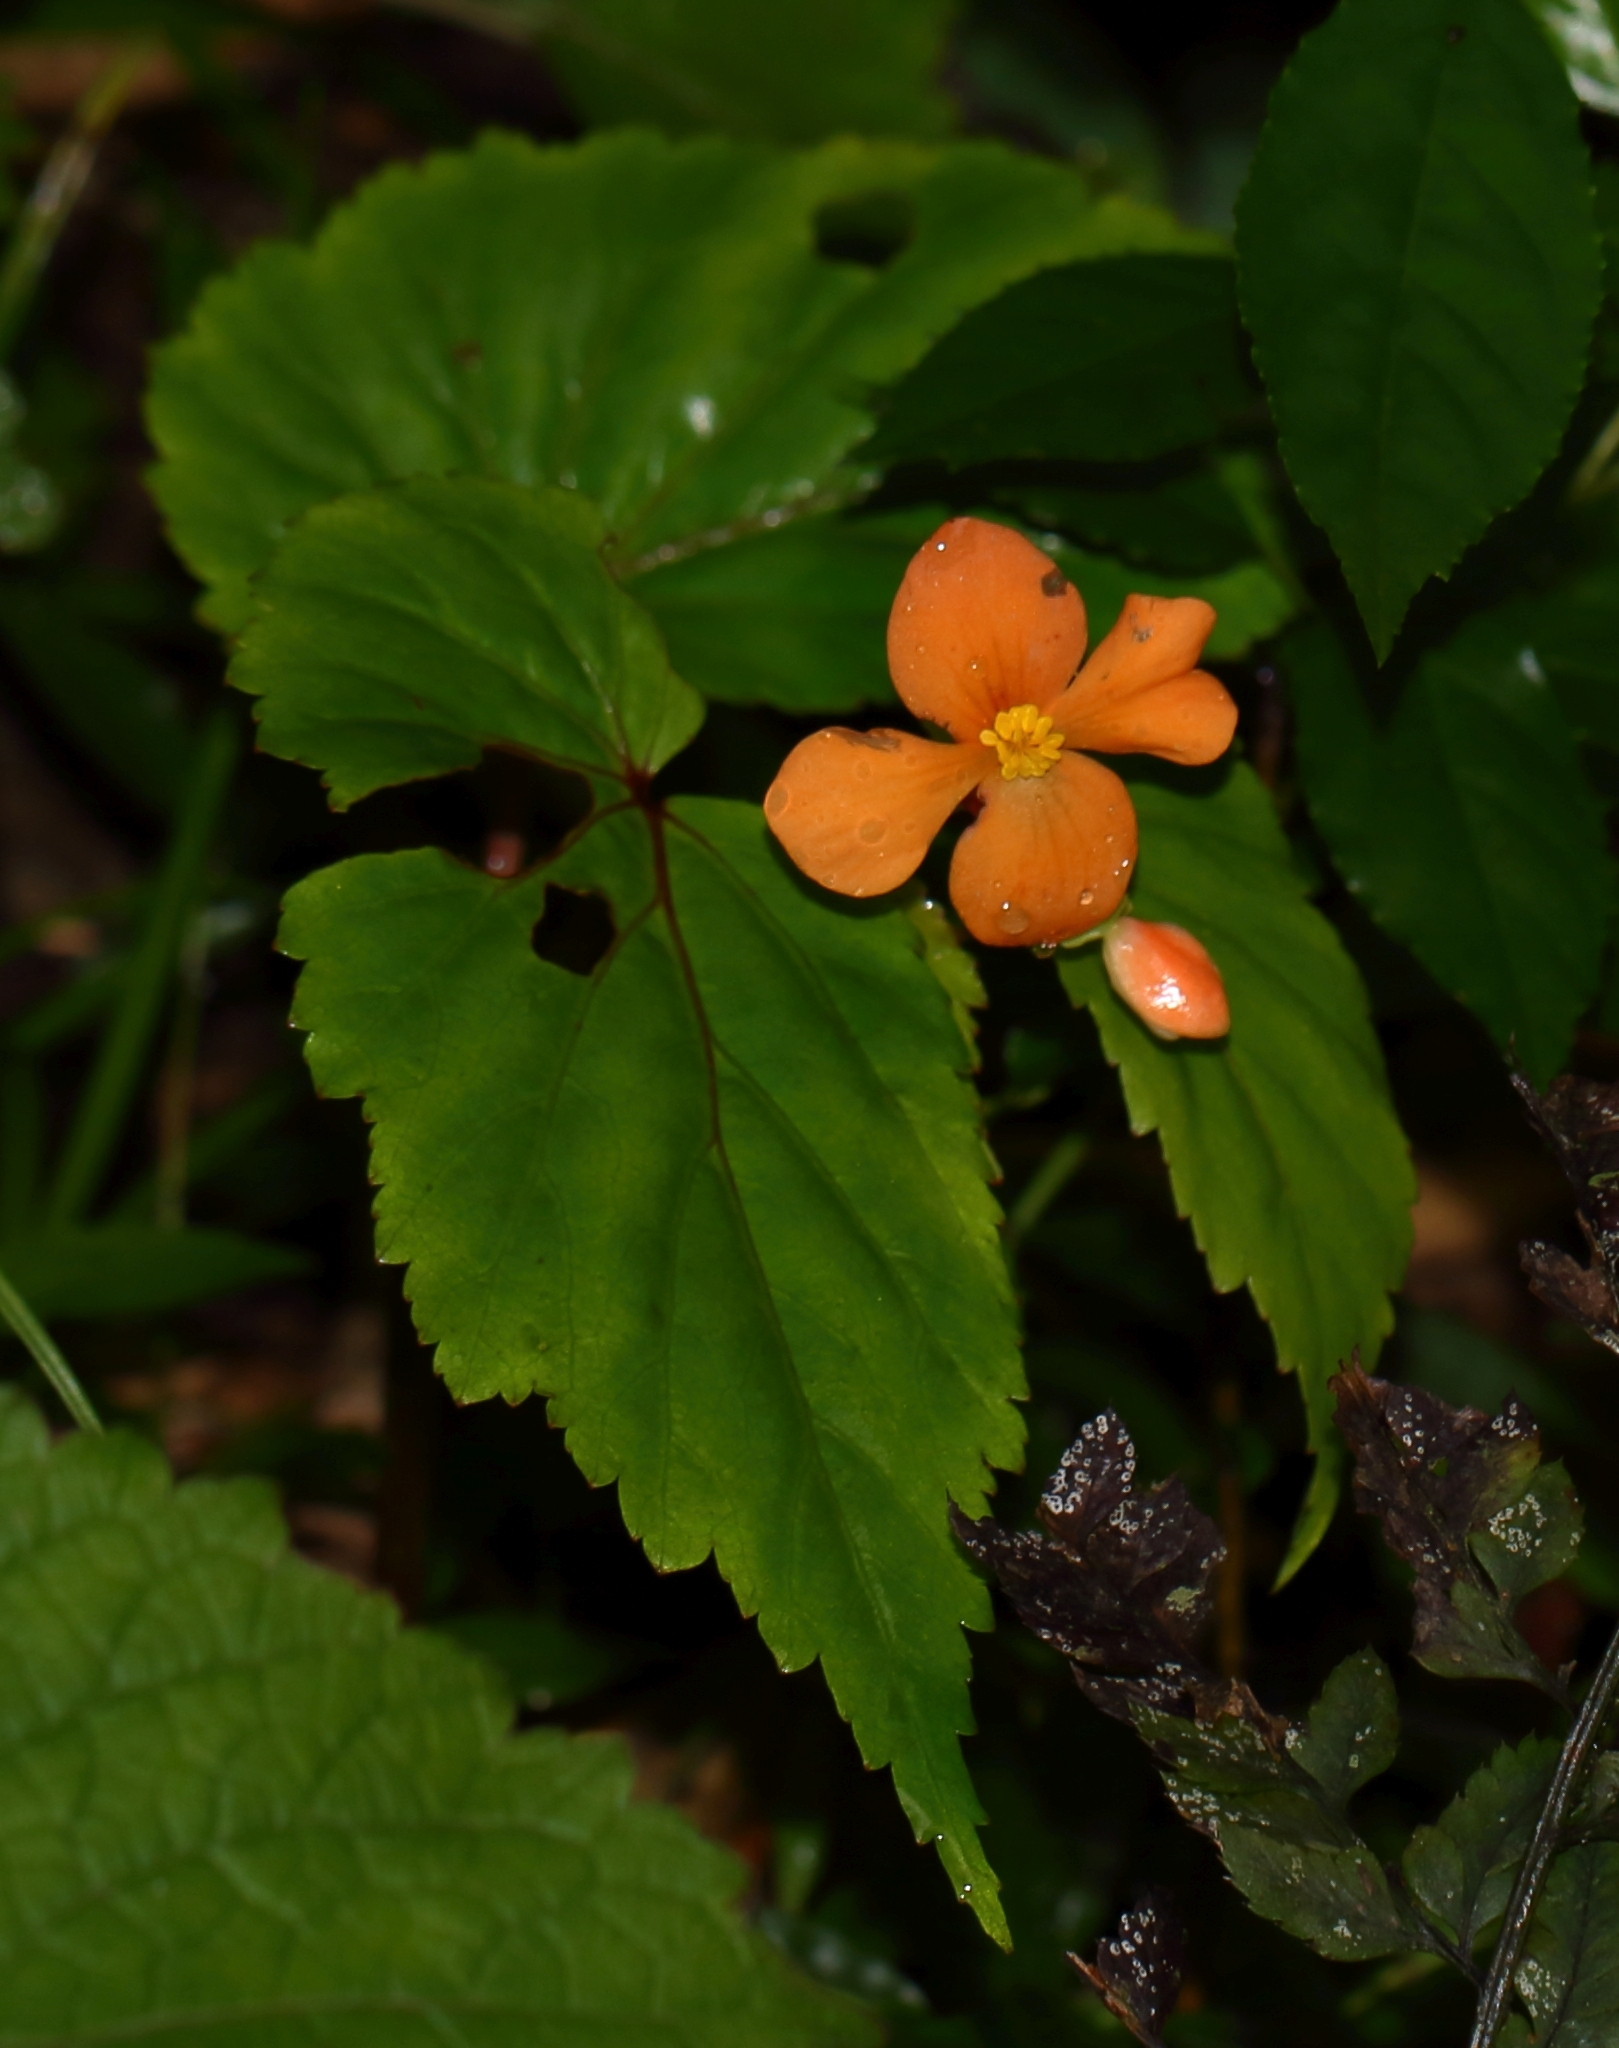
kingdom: Plantae
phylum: Tracheophyta
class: Magnoliopsida
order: Cucurbitales
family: Begoniaceae
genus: Begonia
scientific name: Begonia sutherlandii
